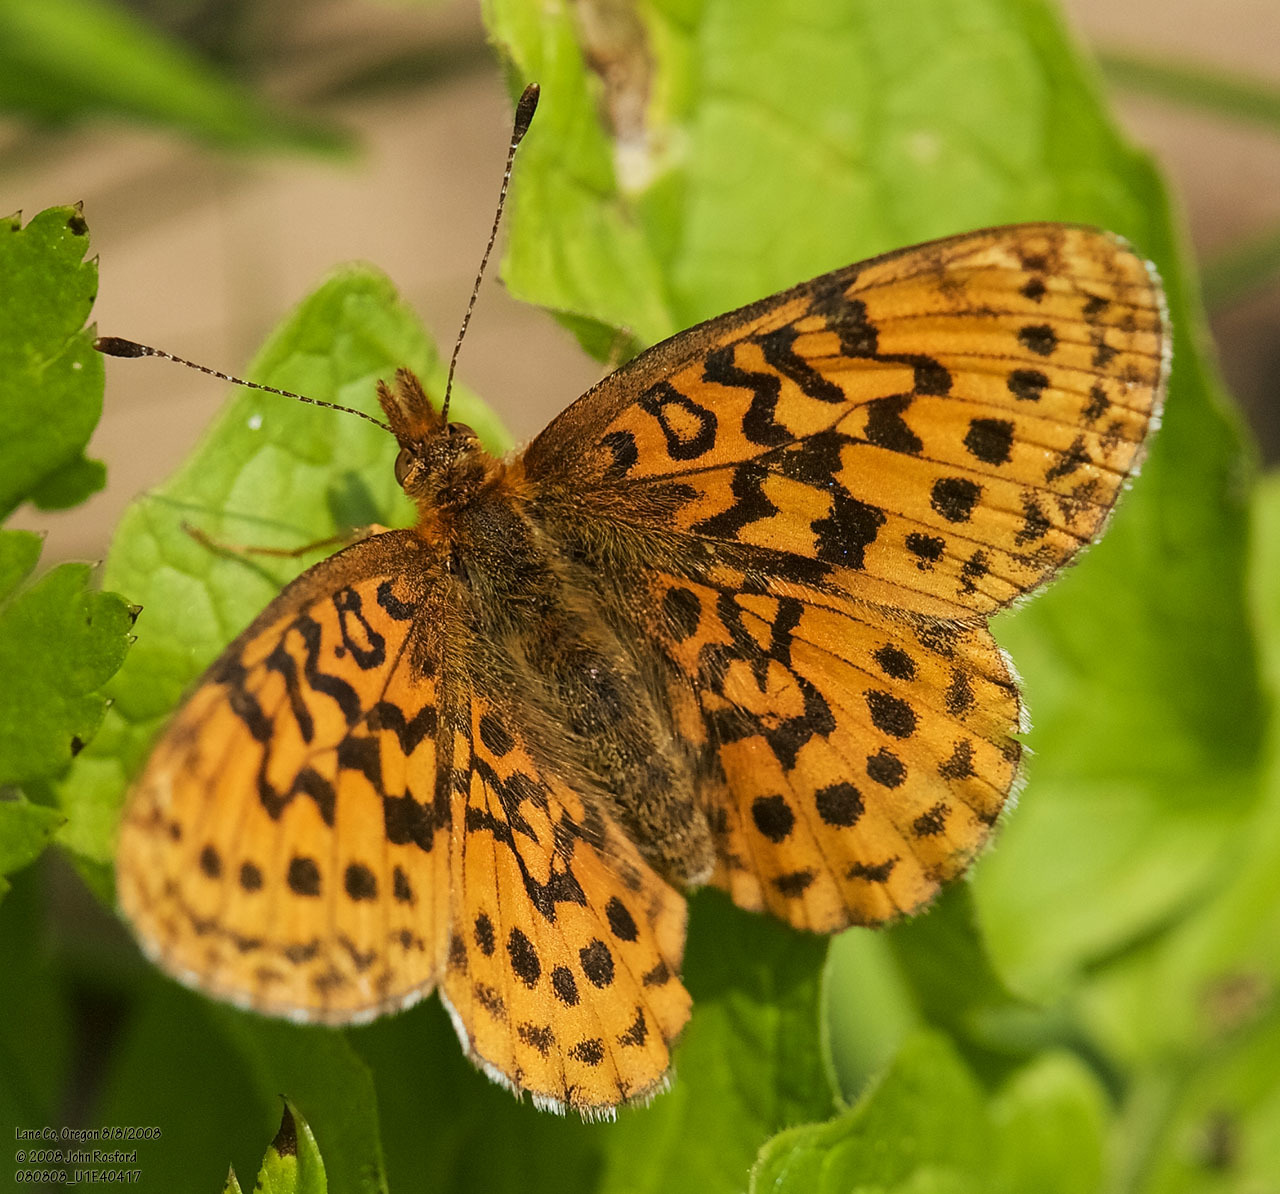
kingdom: Animalia
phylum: Arthropoda
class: Insecta
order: Lepidoptera
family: Nymphalidae
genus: Boloria
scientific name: Boloria epithore
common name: Pacific fritillary
